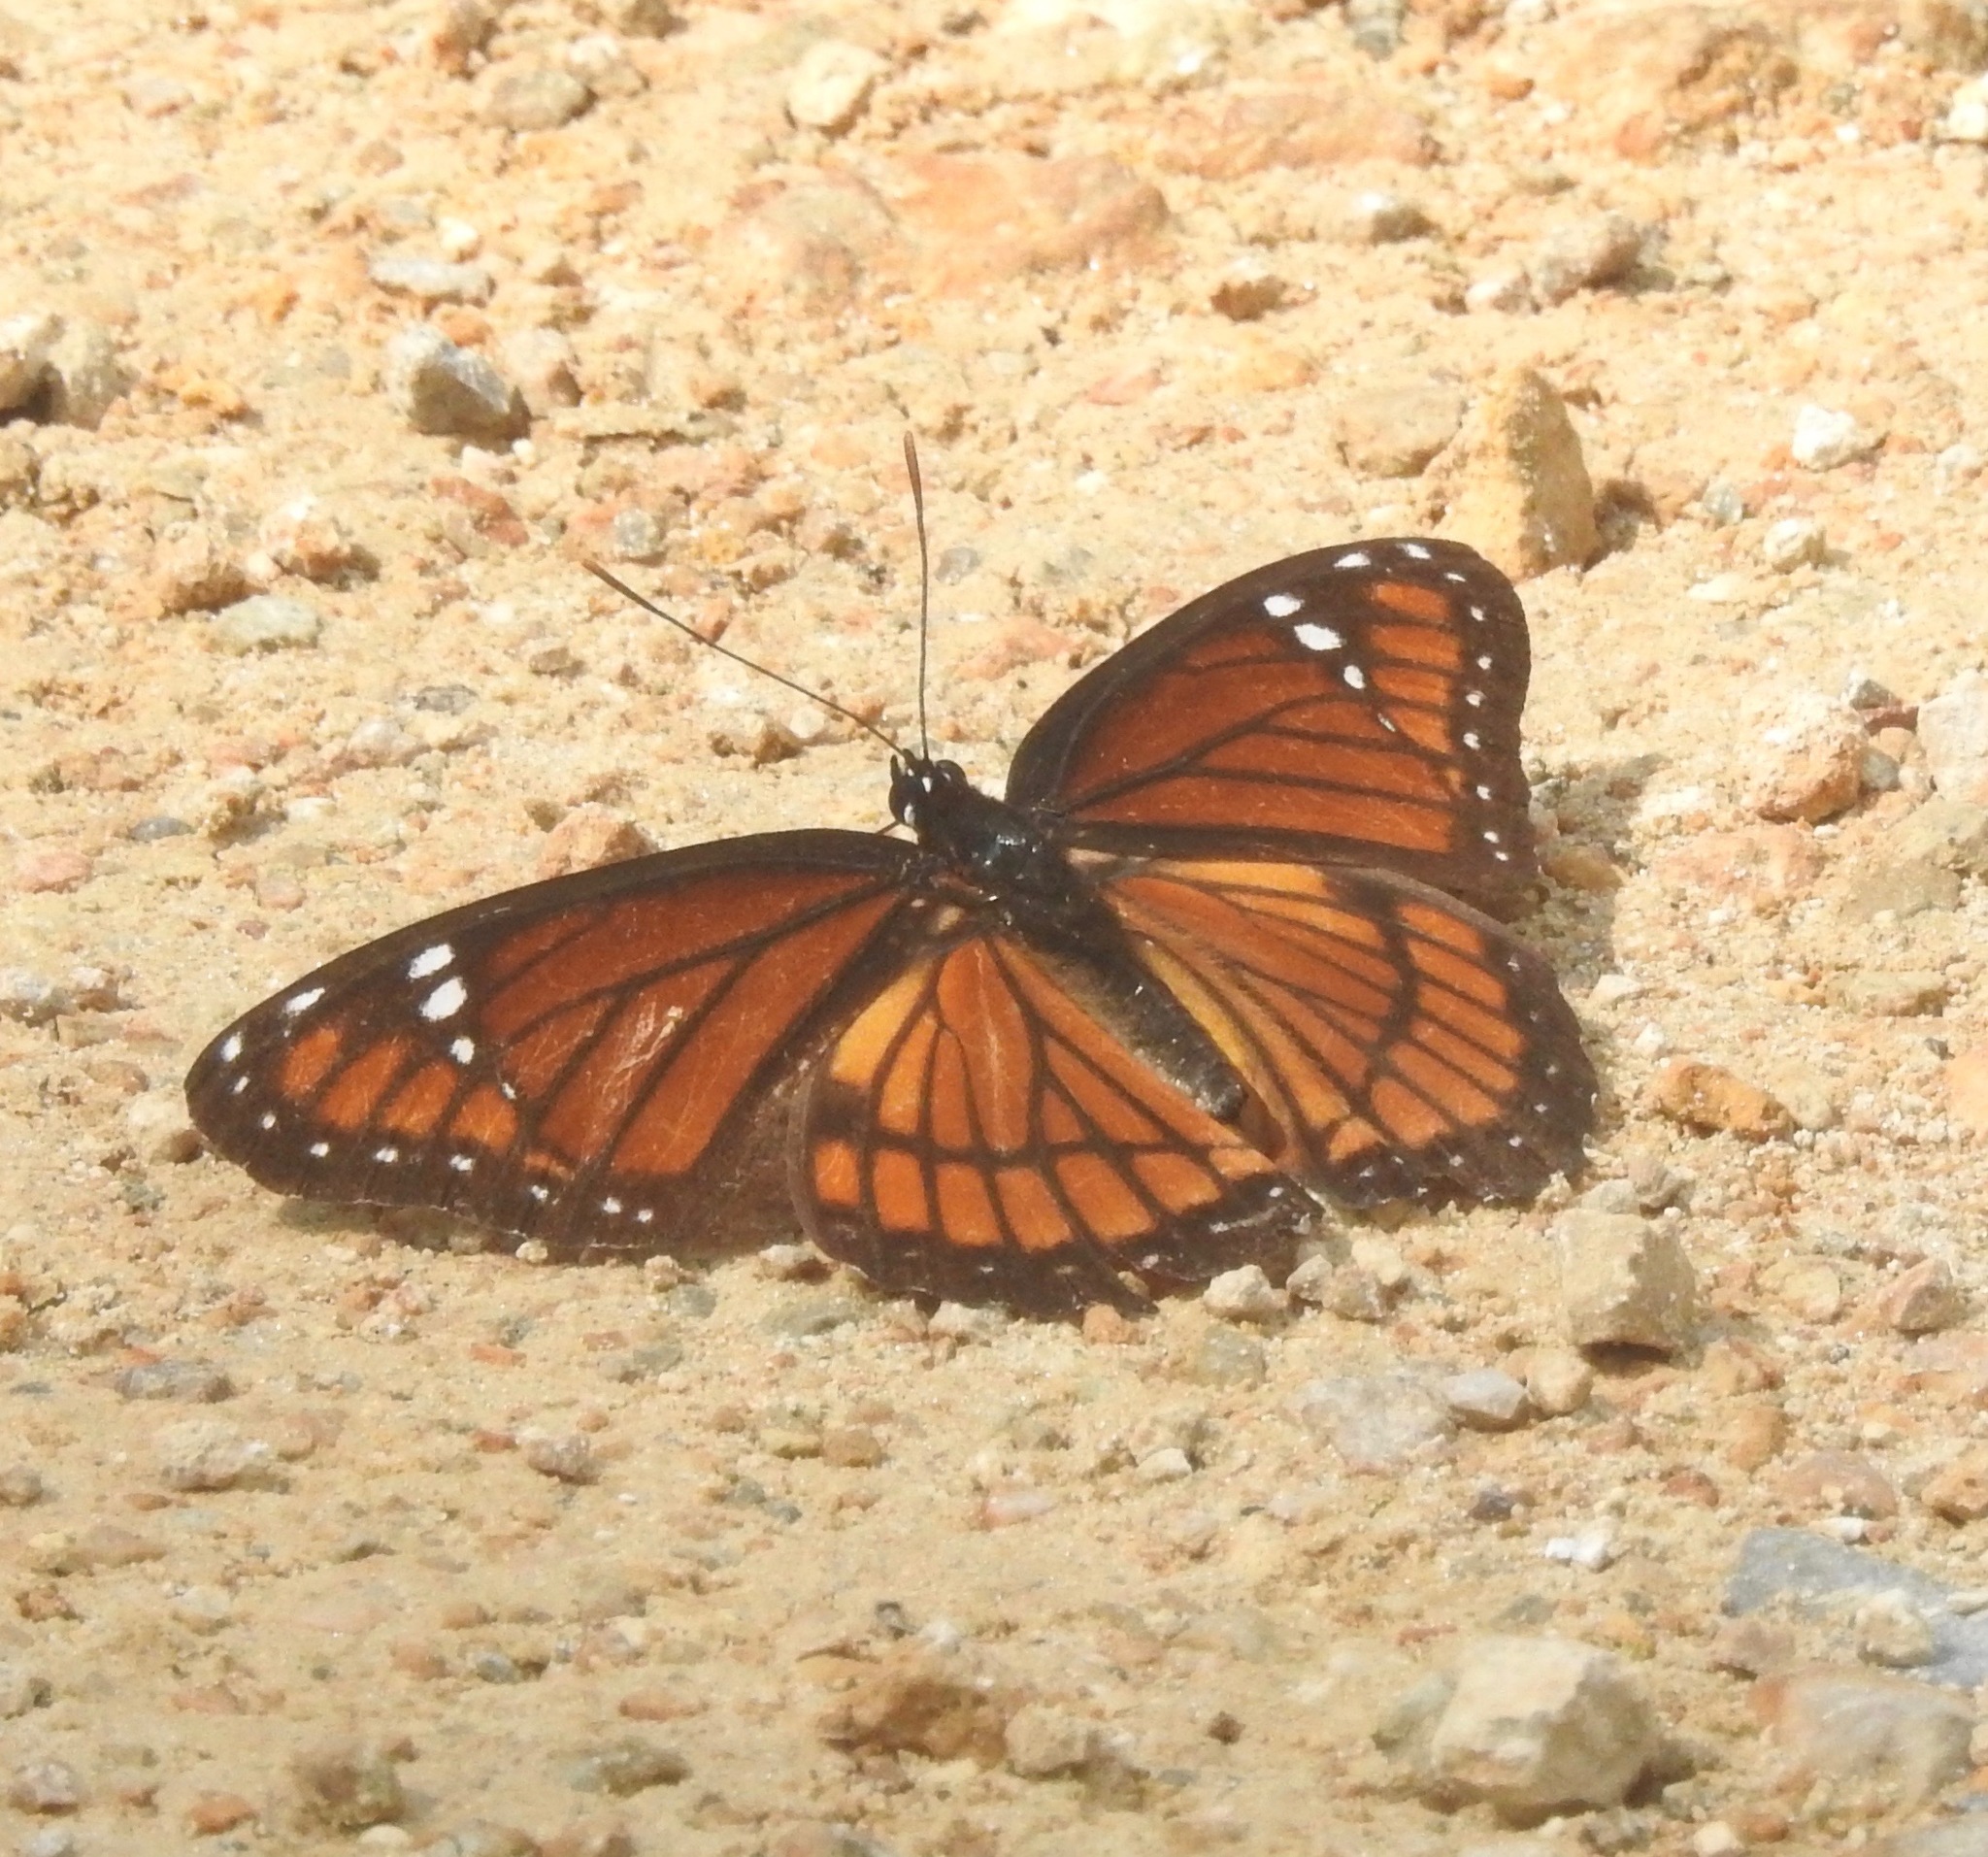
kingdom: Animalia
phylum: Arthropoda
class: Insecta
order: Lepidoptera
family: Nymphalidae
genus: Limenitis
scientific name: Limenitis archippus
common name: Viceroy
